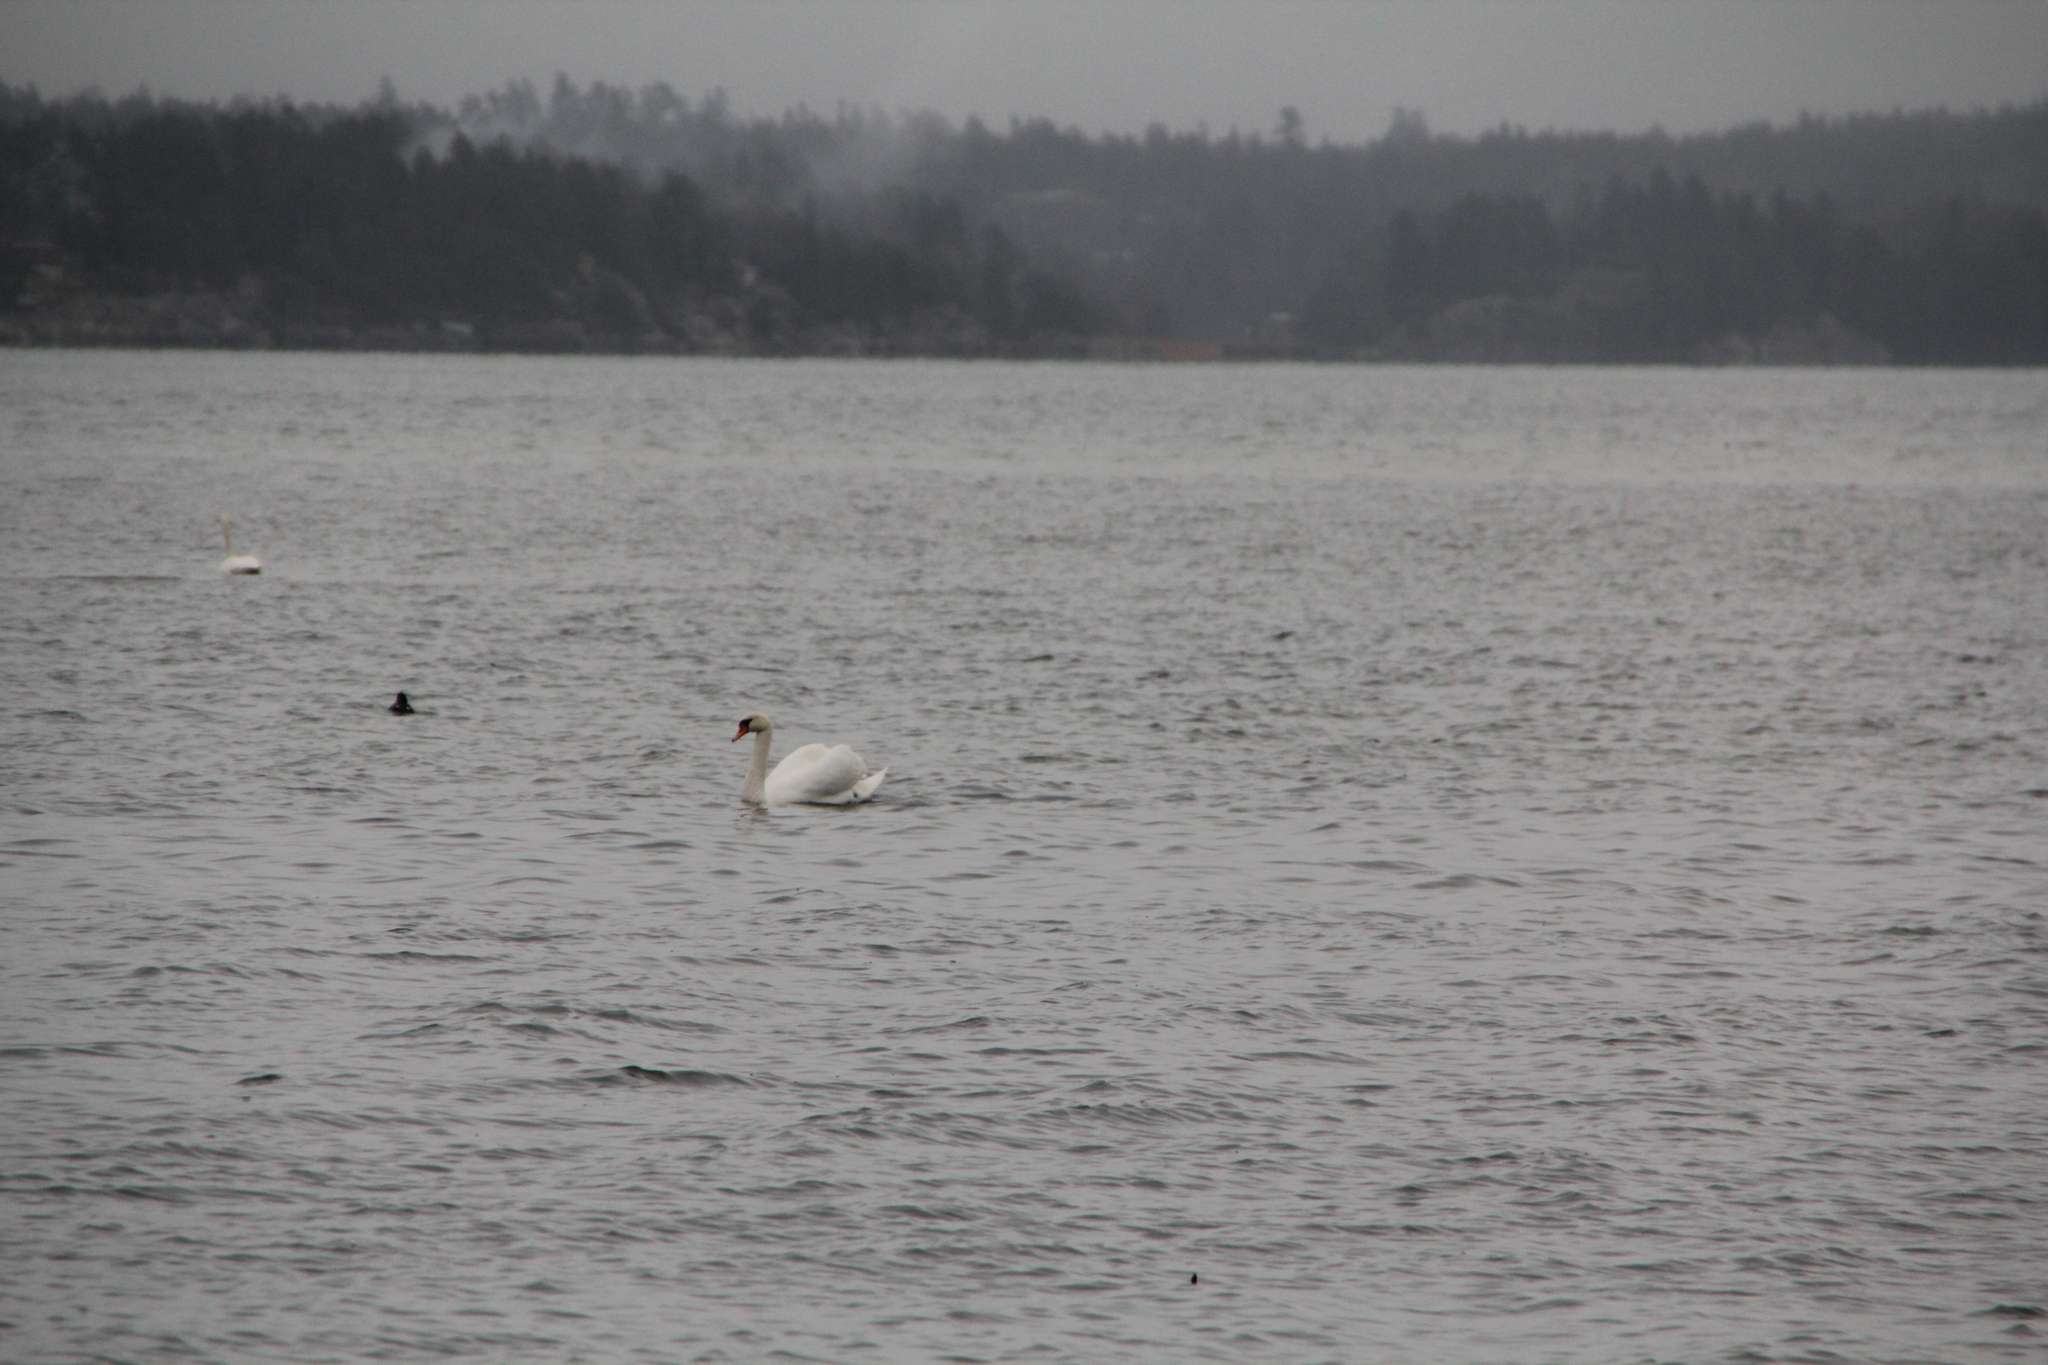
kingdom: Animalia
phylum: Chordata
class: Aves
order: Anseriformes
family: Anatidae
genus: Cygnus
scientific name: Cygnus olor
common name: Mute swan
